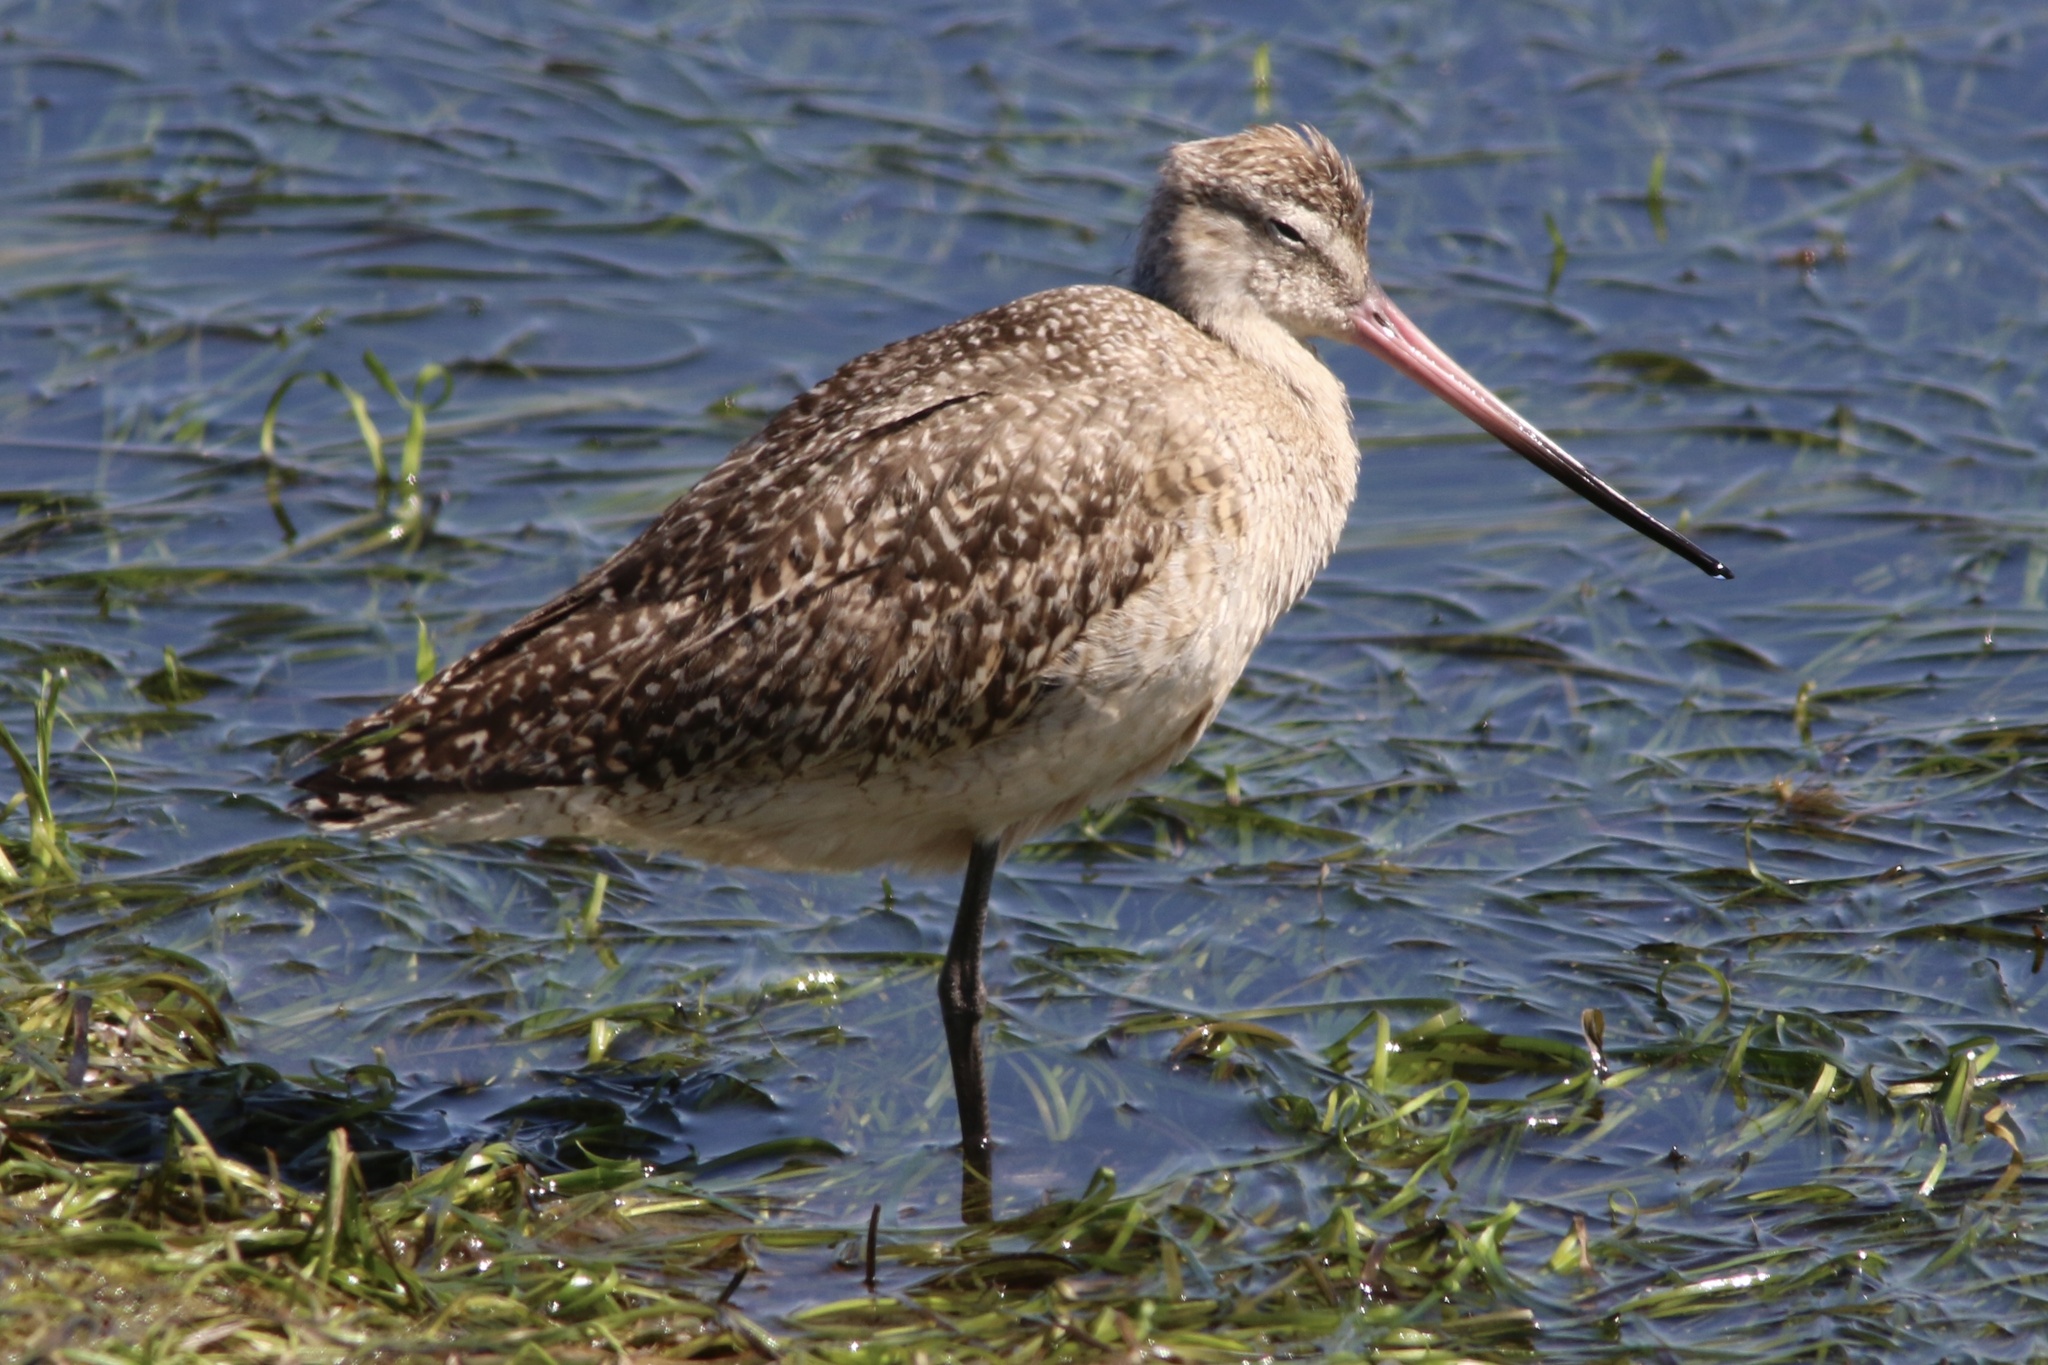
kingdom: Animalia
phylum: Chordata
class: Aves
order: Charadriiformes
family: Scolopacidae
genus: Limosa
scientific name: Limosa fedoa
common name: Marbled godwit
